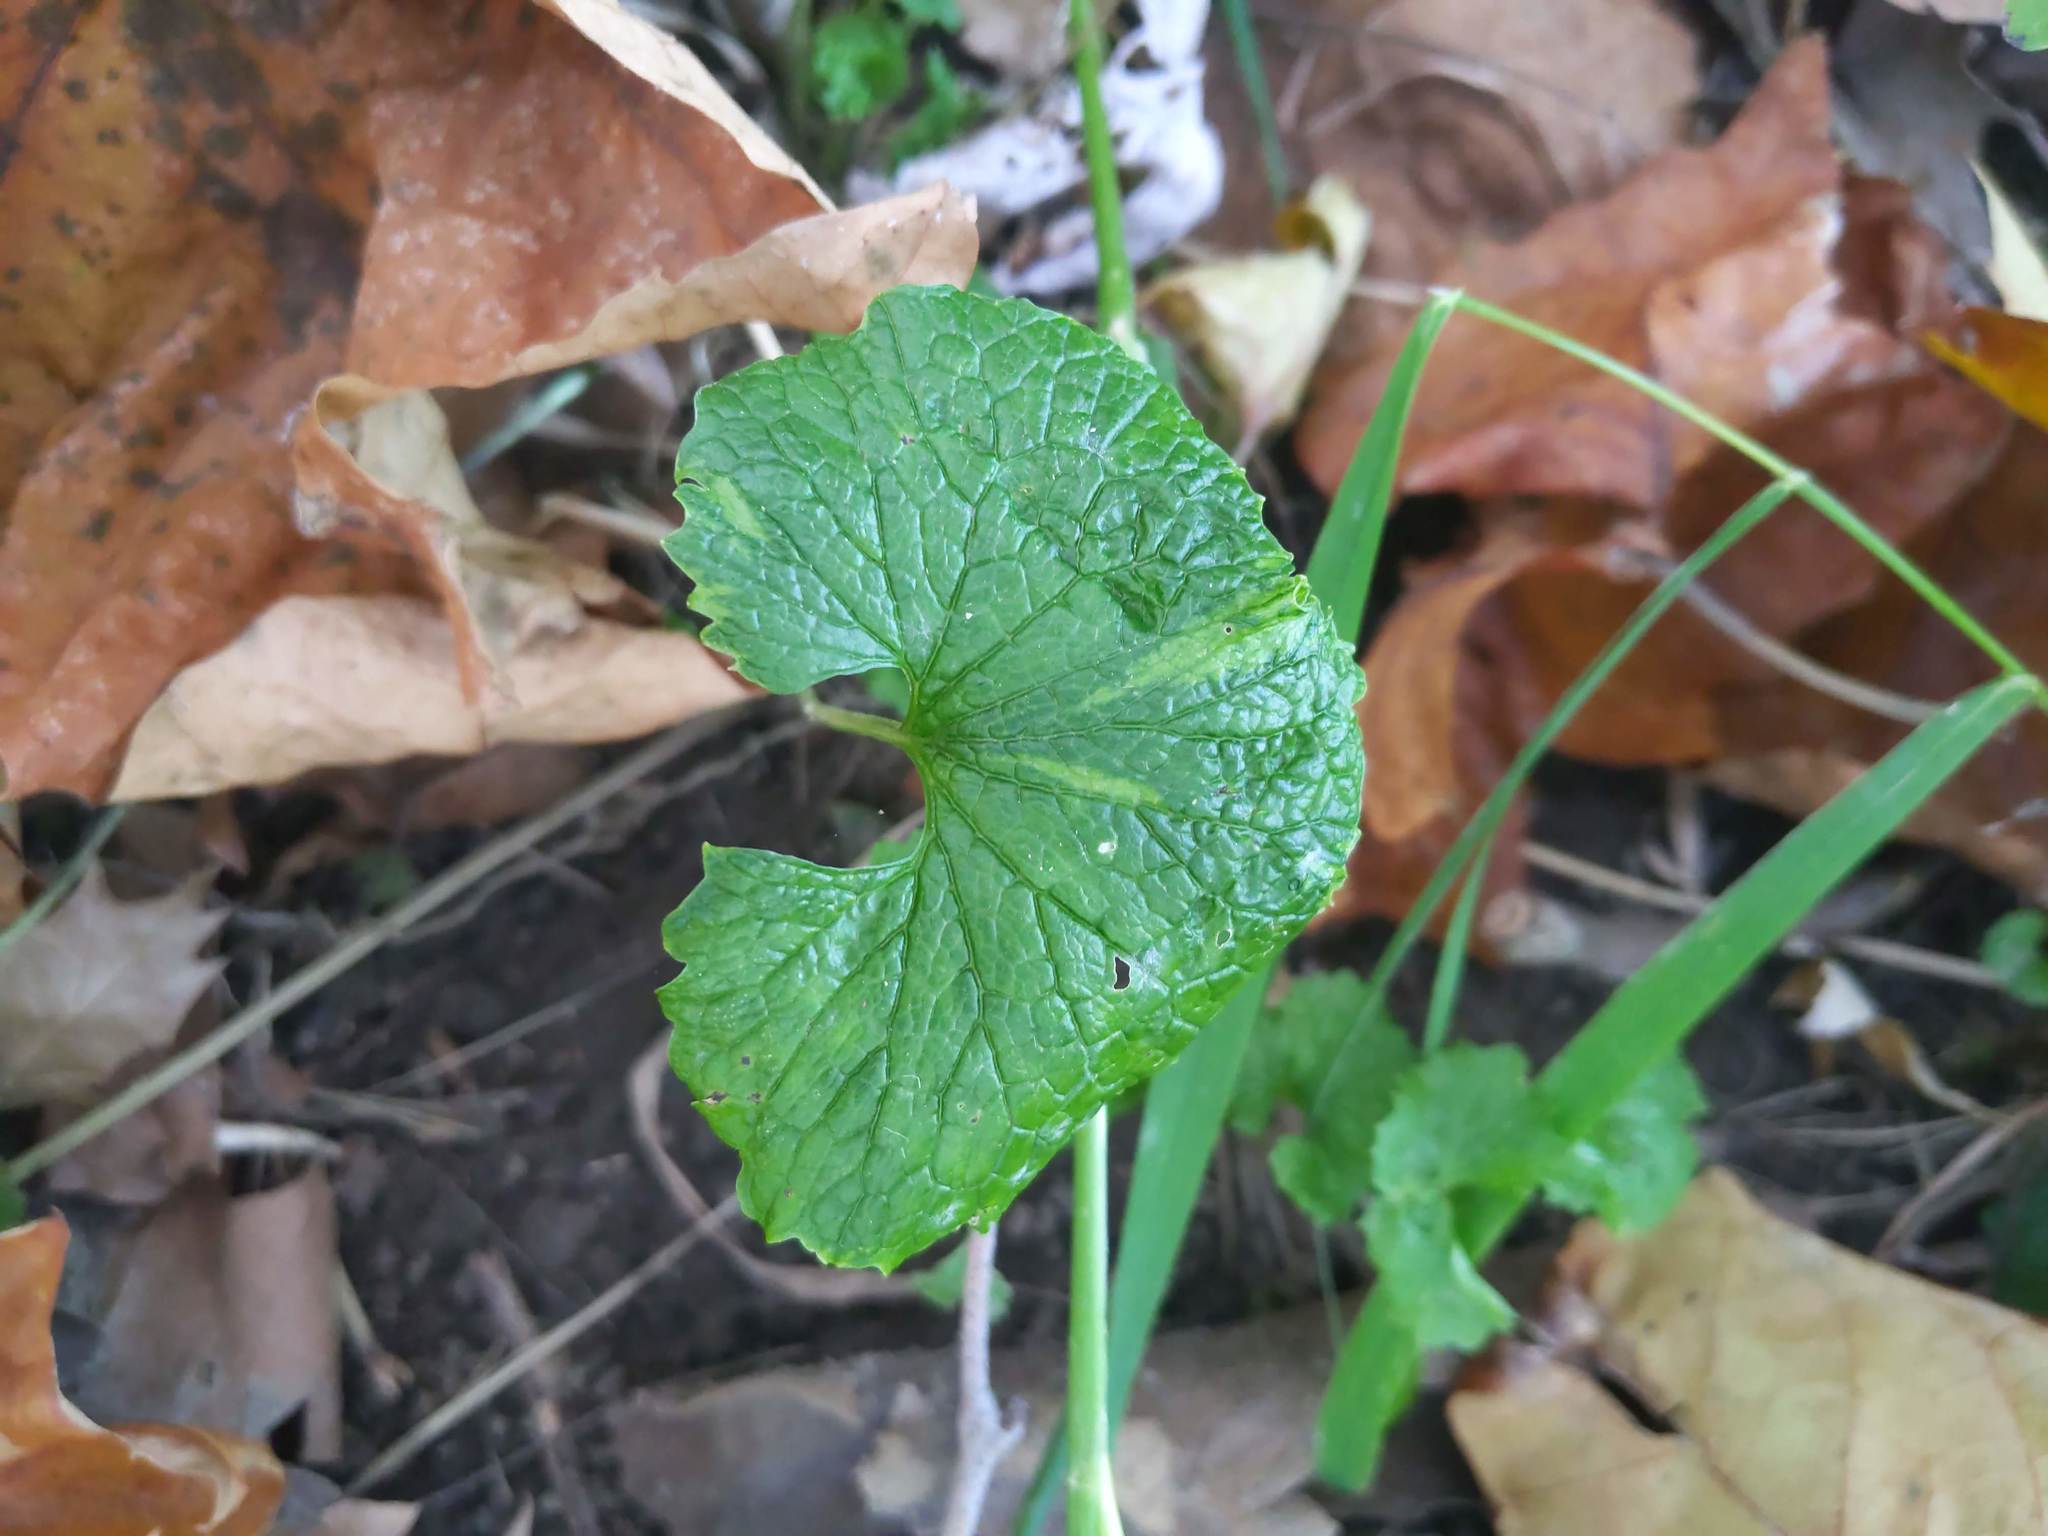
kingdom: Plantae
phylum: Tracheophyta
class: Magnoliopsida
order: Brassicales
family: Brassicaceae
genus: Alliaria
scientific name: Alliaria petiolata
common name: Garlic mustard
